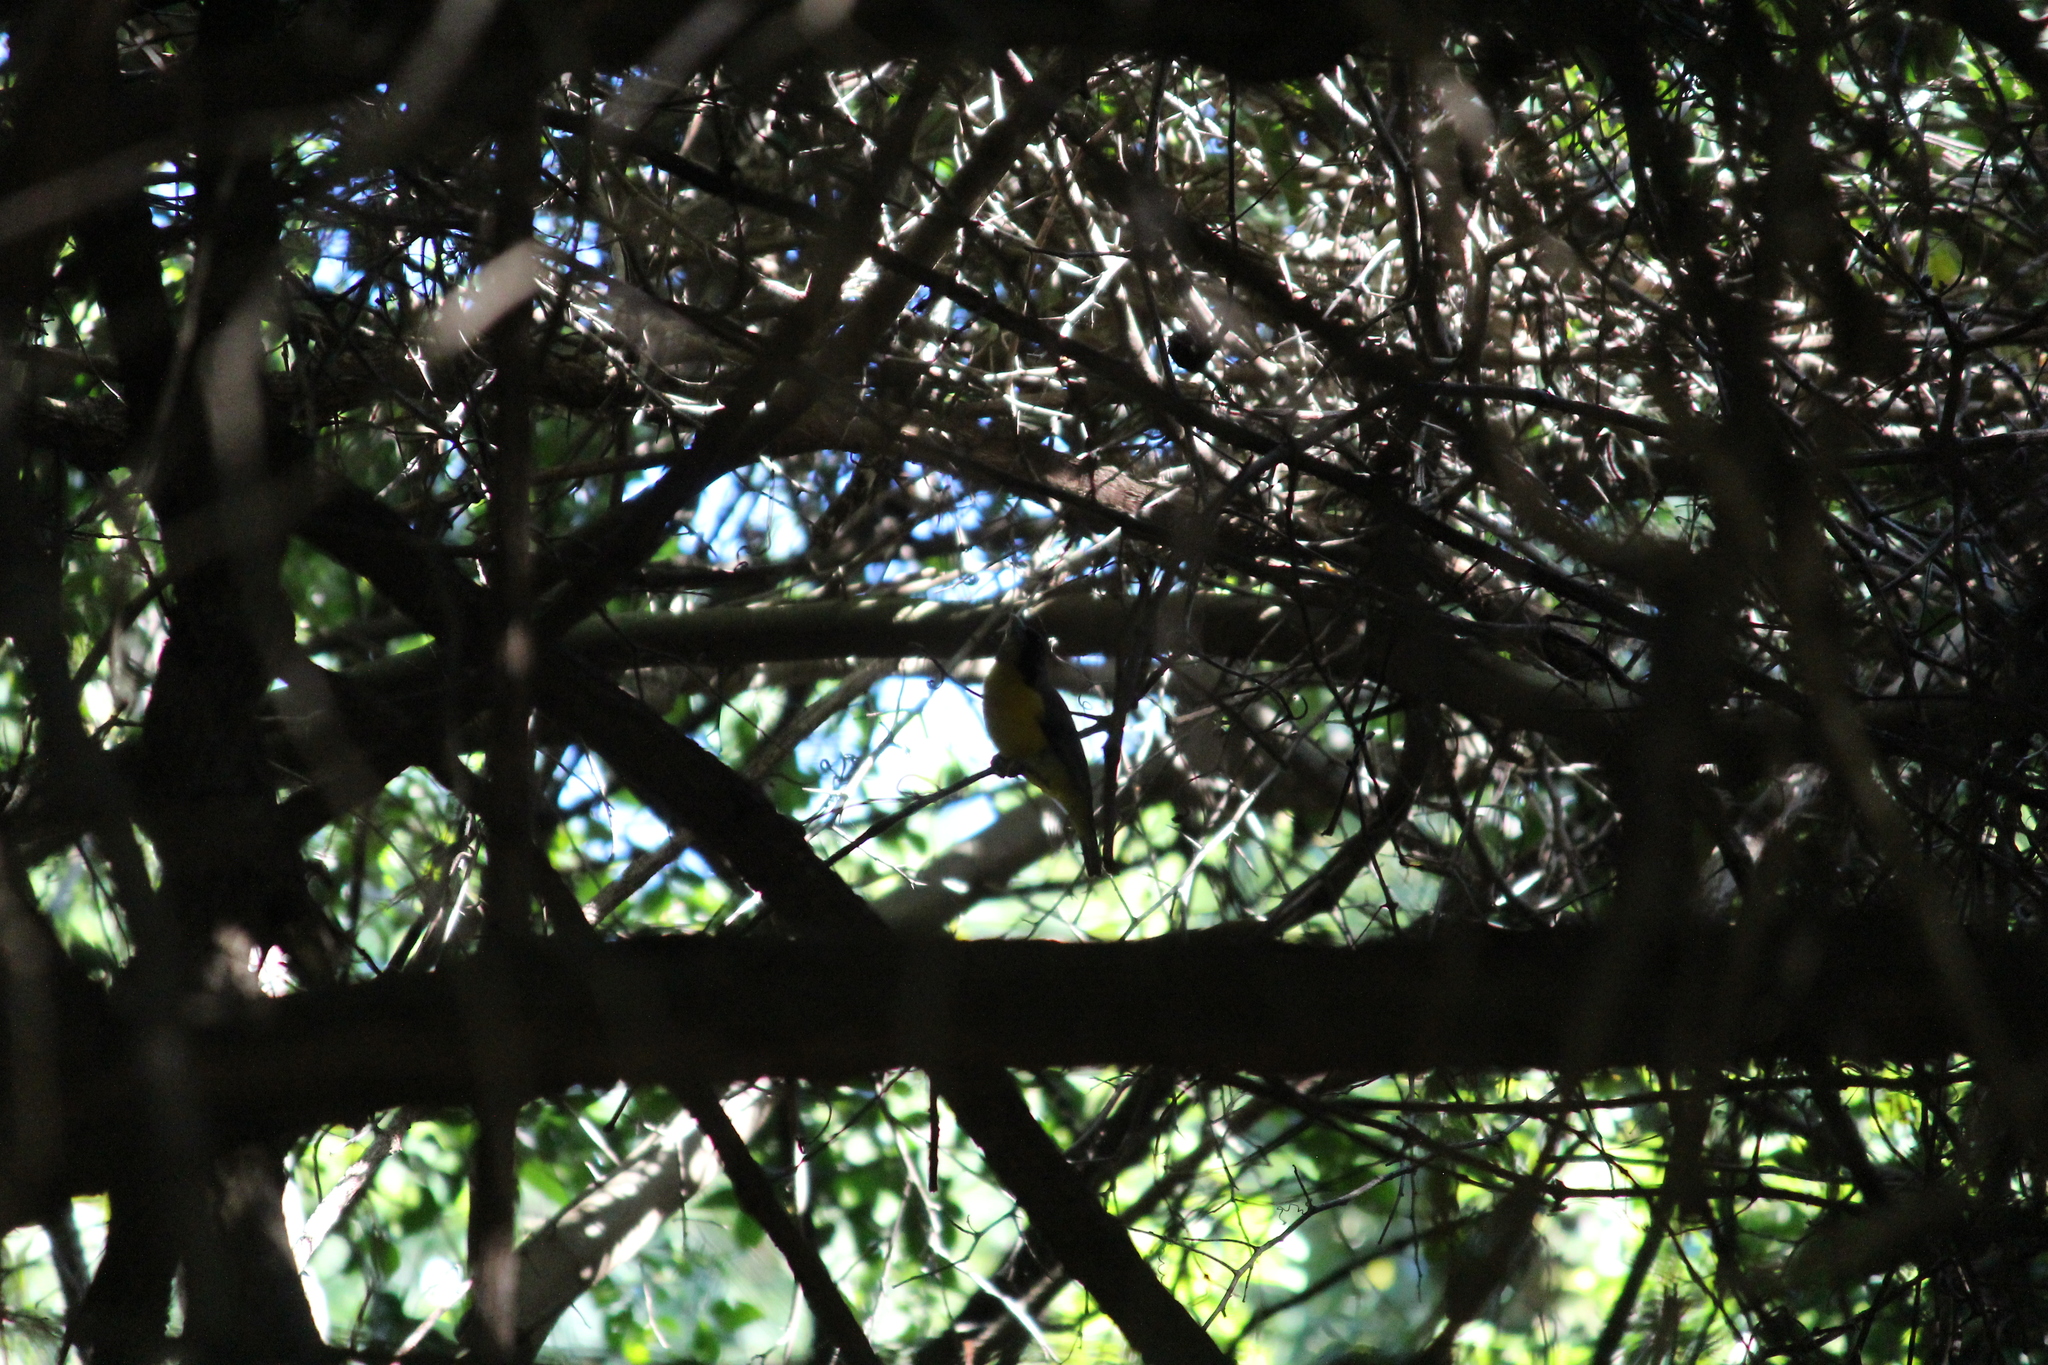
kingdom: Animalia
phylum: Chordata
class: Aves
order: Passeriformes
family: Ploceidae
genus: Ploceus
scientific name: Ploceus bicolor
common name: Dark-backed weaver
